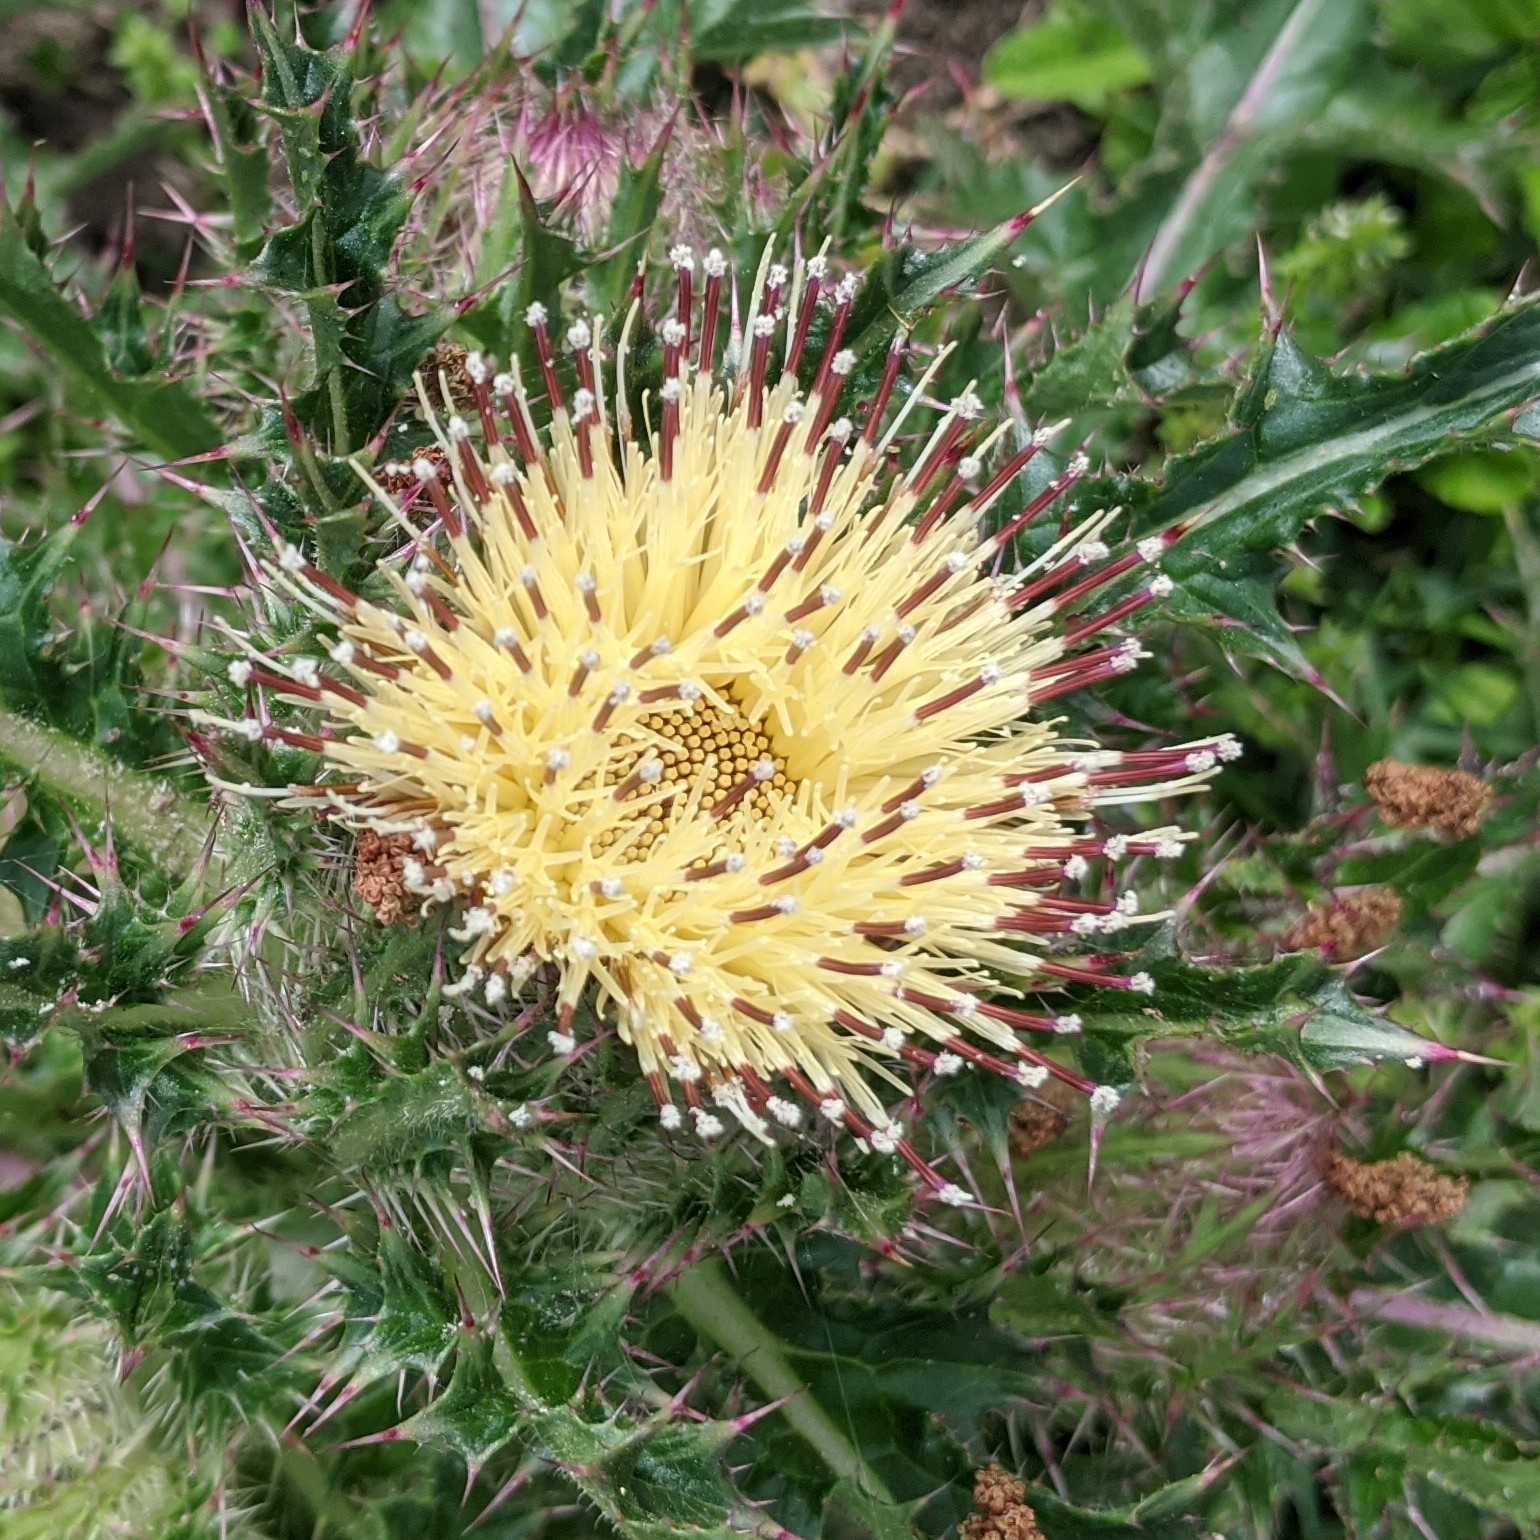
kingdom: Plantae
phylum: Tracheophyta
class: Magnoliopsida
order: Asterales
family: Asteraceae
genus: Cirsium
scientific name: Cirsium horridulum
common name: Bristly thistle
